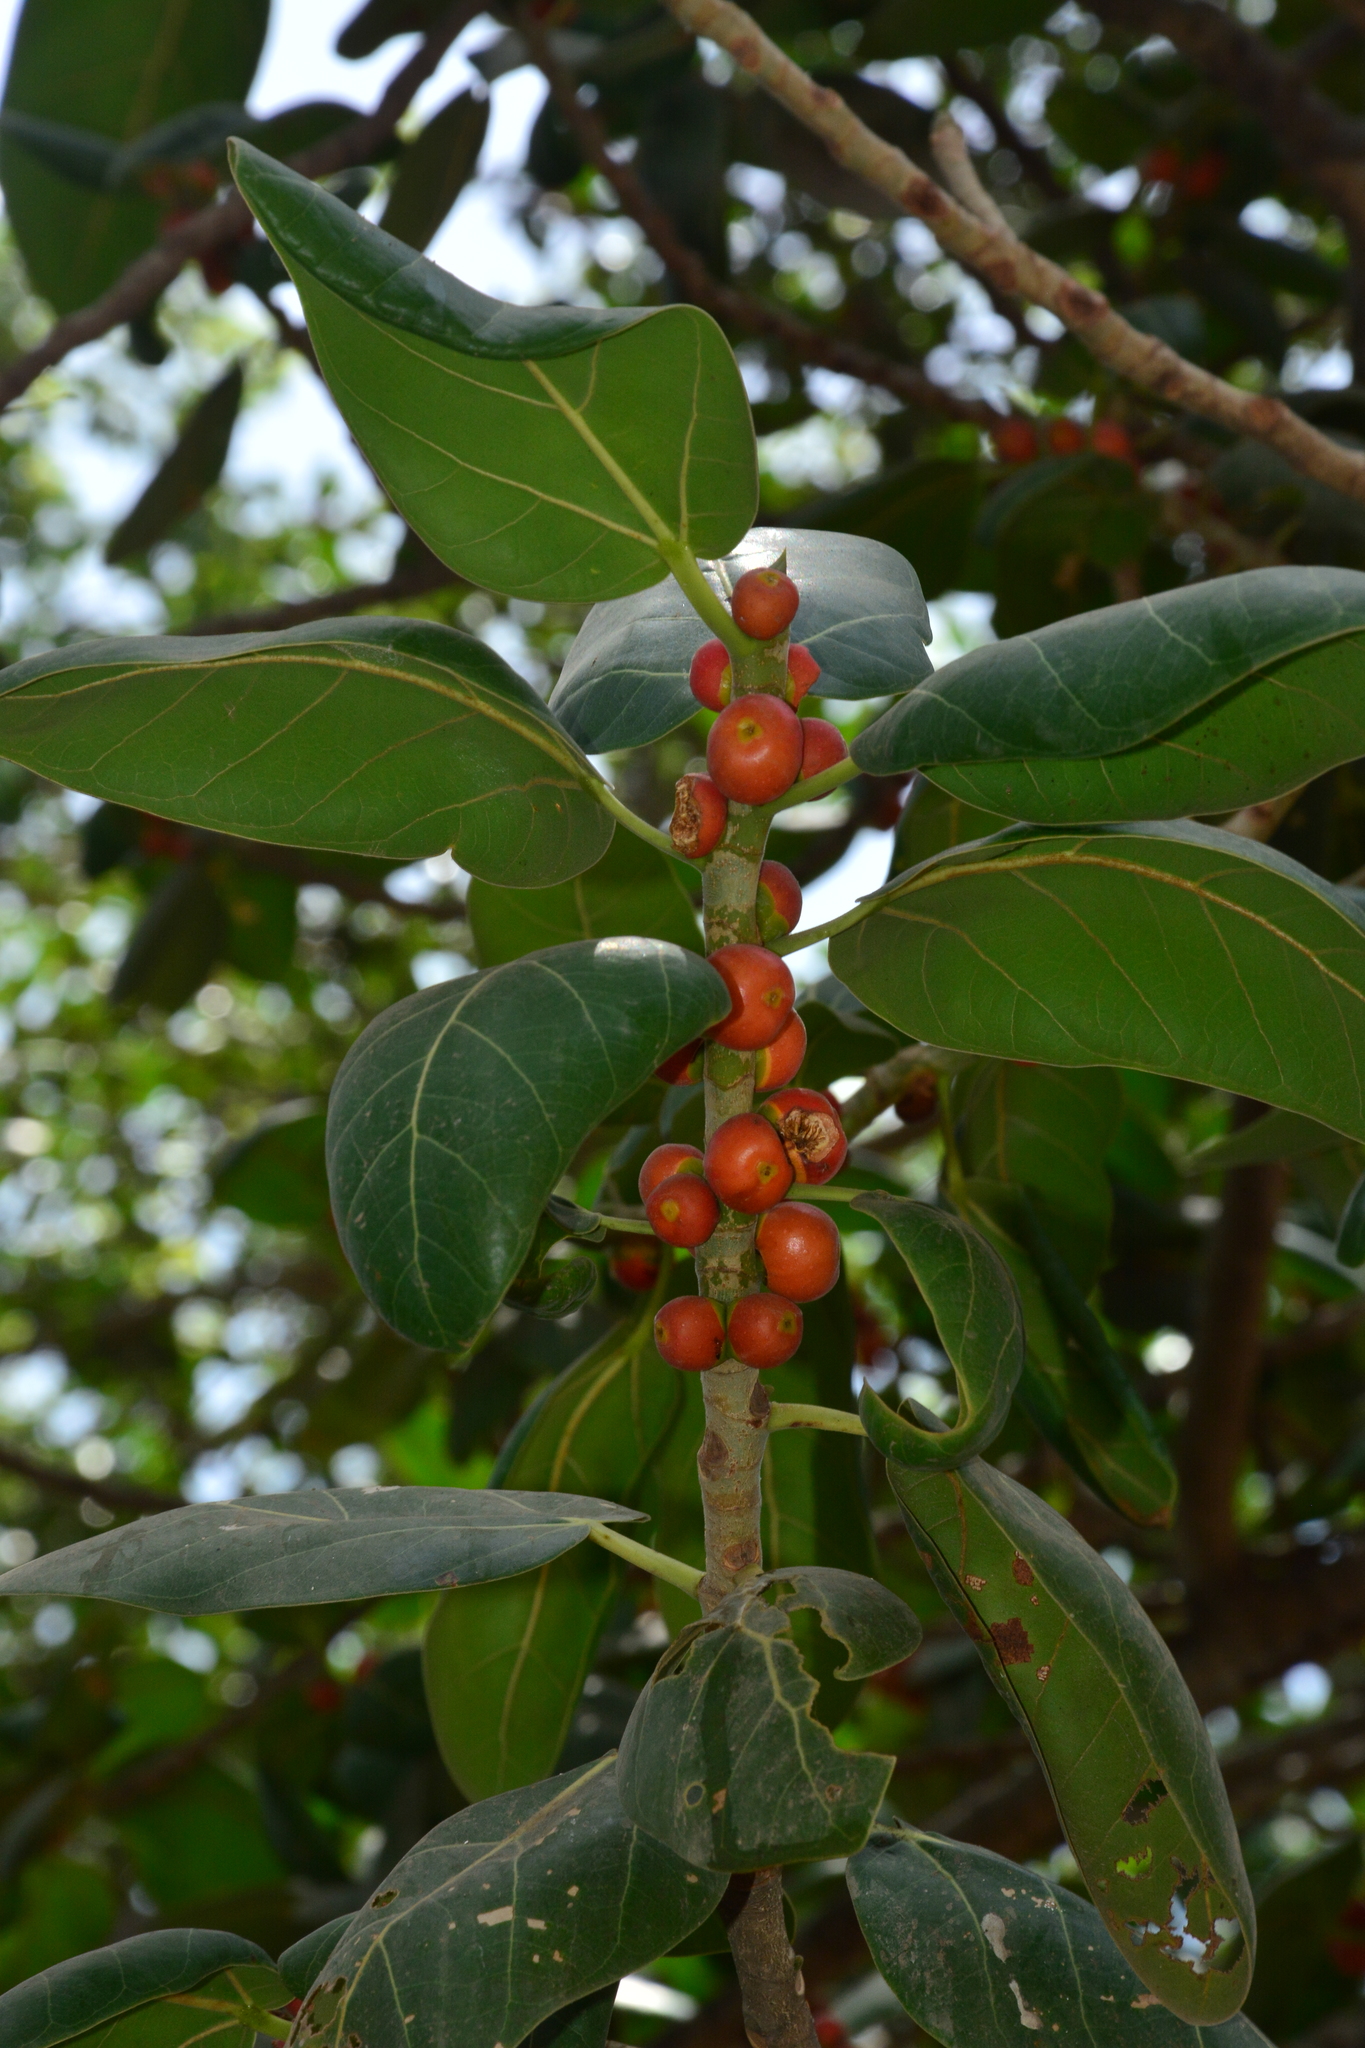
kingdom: Plantae
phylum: Tracheophyta
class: Magnoliopsida
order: Rosales
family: Moraceae
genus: Ficus
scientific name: Ficus benghalensis
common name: Indian banyan
